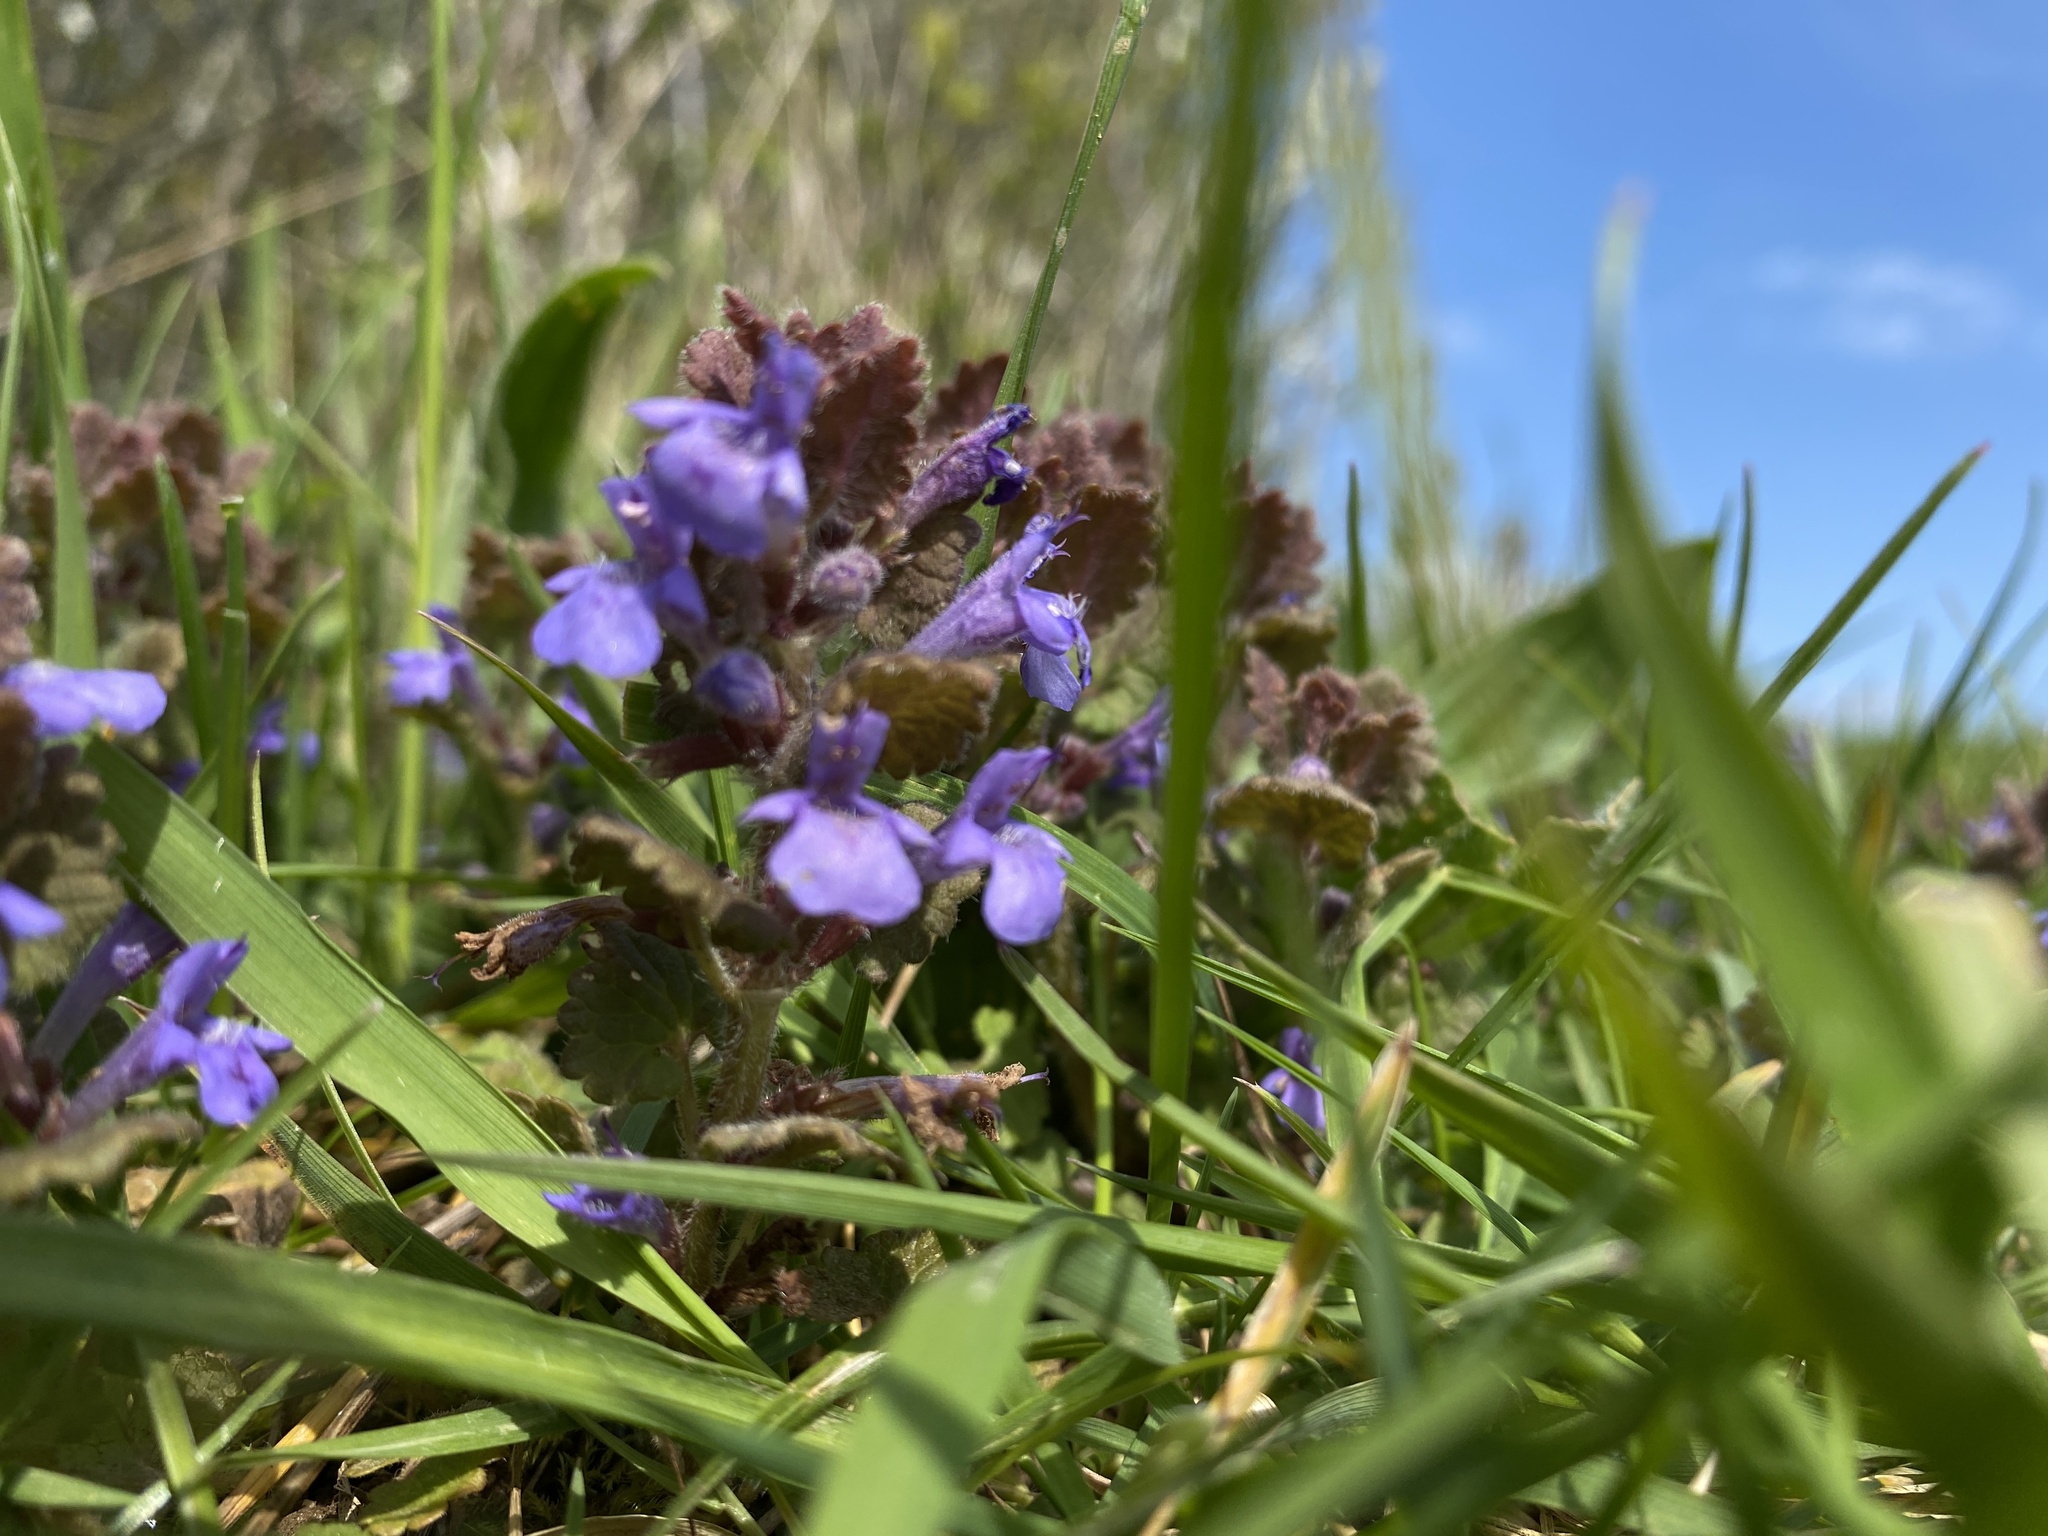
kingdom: Plantae
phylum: Tracheophyta
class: Magnoliopsida
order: Lamiales
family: Lamiaceae
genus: Glechoma
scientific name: Glechoma hederacea
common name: Ground ivy
